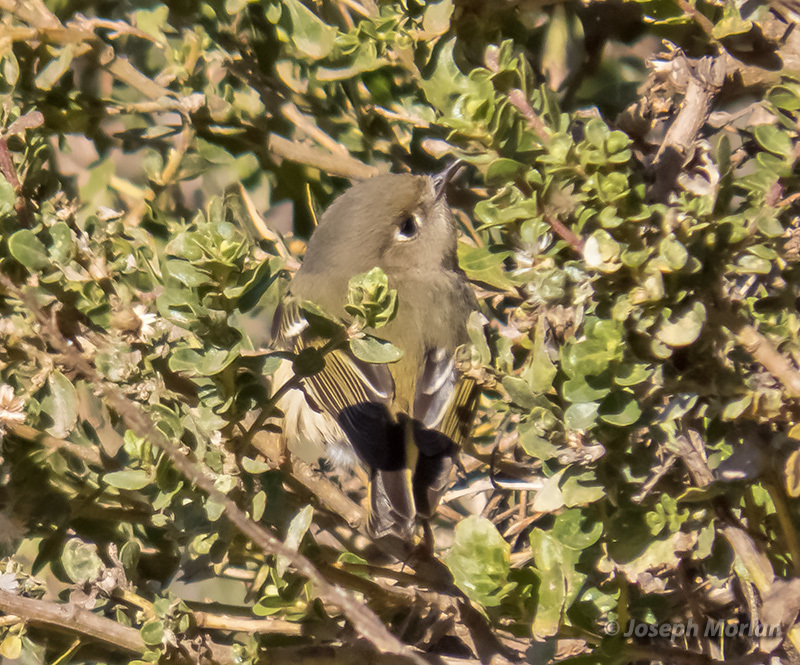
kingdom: Animalia
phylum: Chordata
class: Aves
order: Passeriformes
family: Regulidae
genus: Regulus
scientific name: Regulus calendula
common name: Ruby-crowned kinglet
